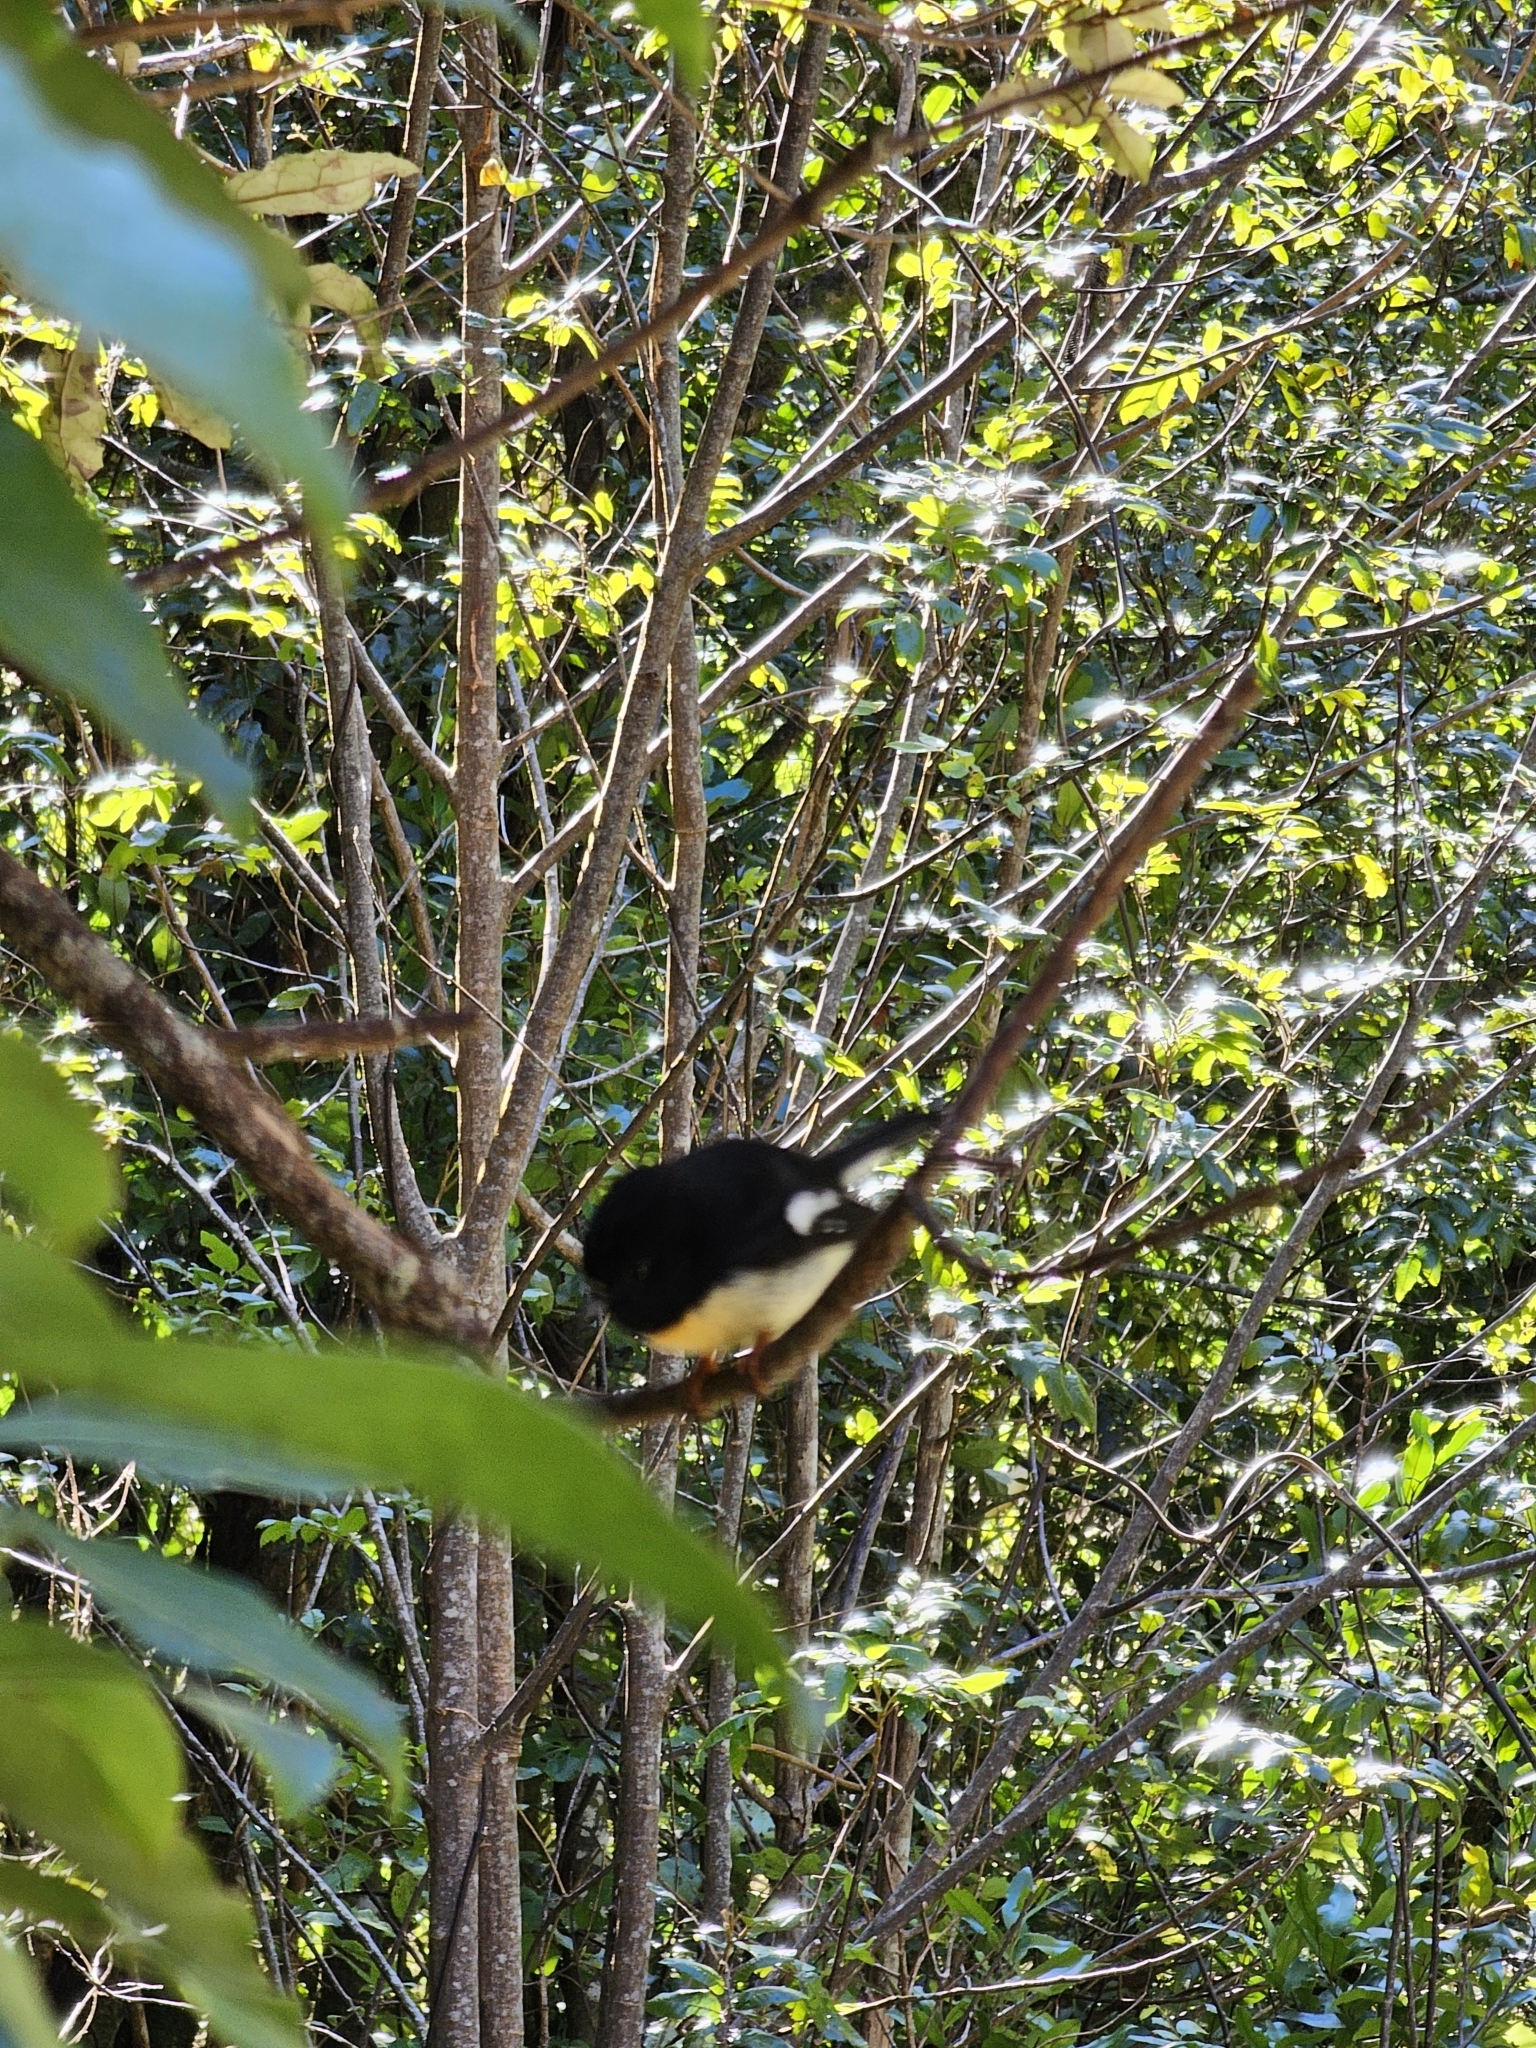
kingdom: Animalia
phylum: Chordata
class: Aves
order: Passeriformes
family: Petroicidae
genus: Petroica
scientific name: Petroica macrocephala
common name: Tomtit
